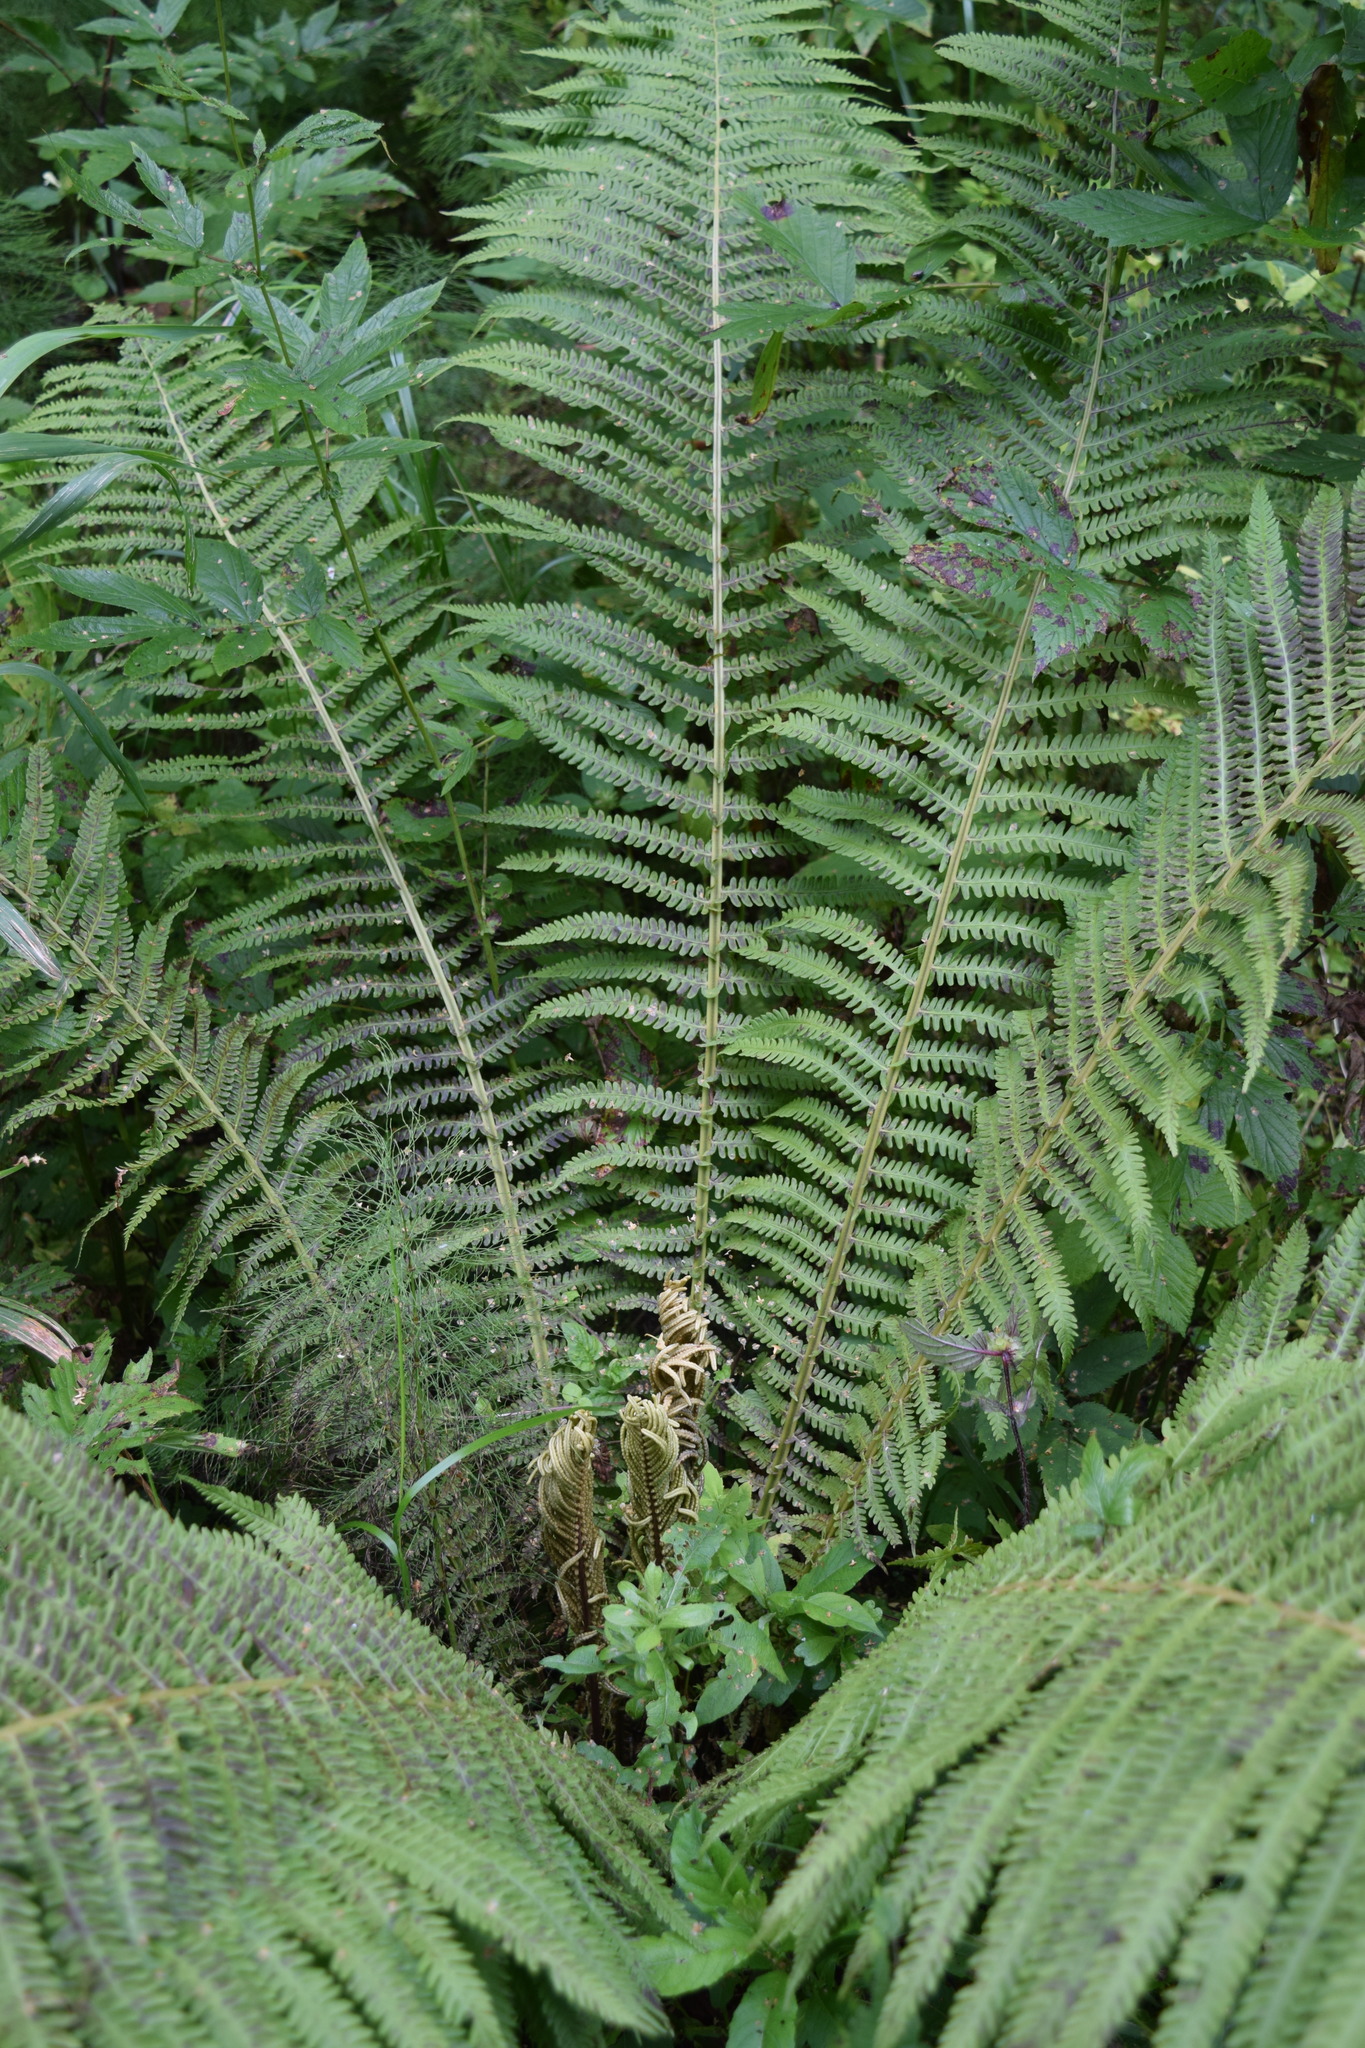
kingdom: Plantae
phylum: Tracheophyta
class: Polypodiopsida
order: Polypodiales
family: Onocleaceae
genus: Matteuccia
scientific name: Matteuccia struthiopteris
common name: Ostrich fern
